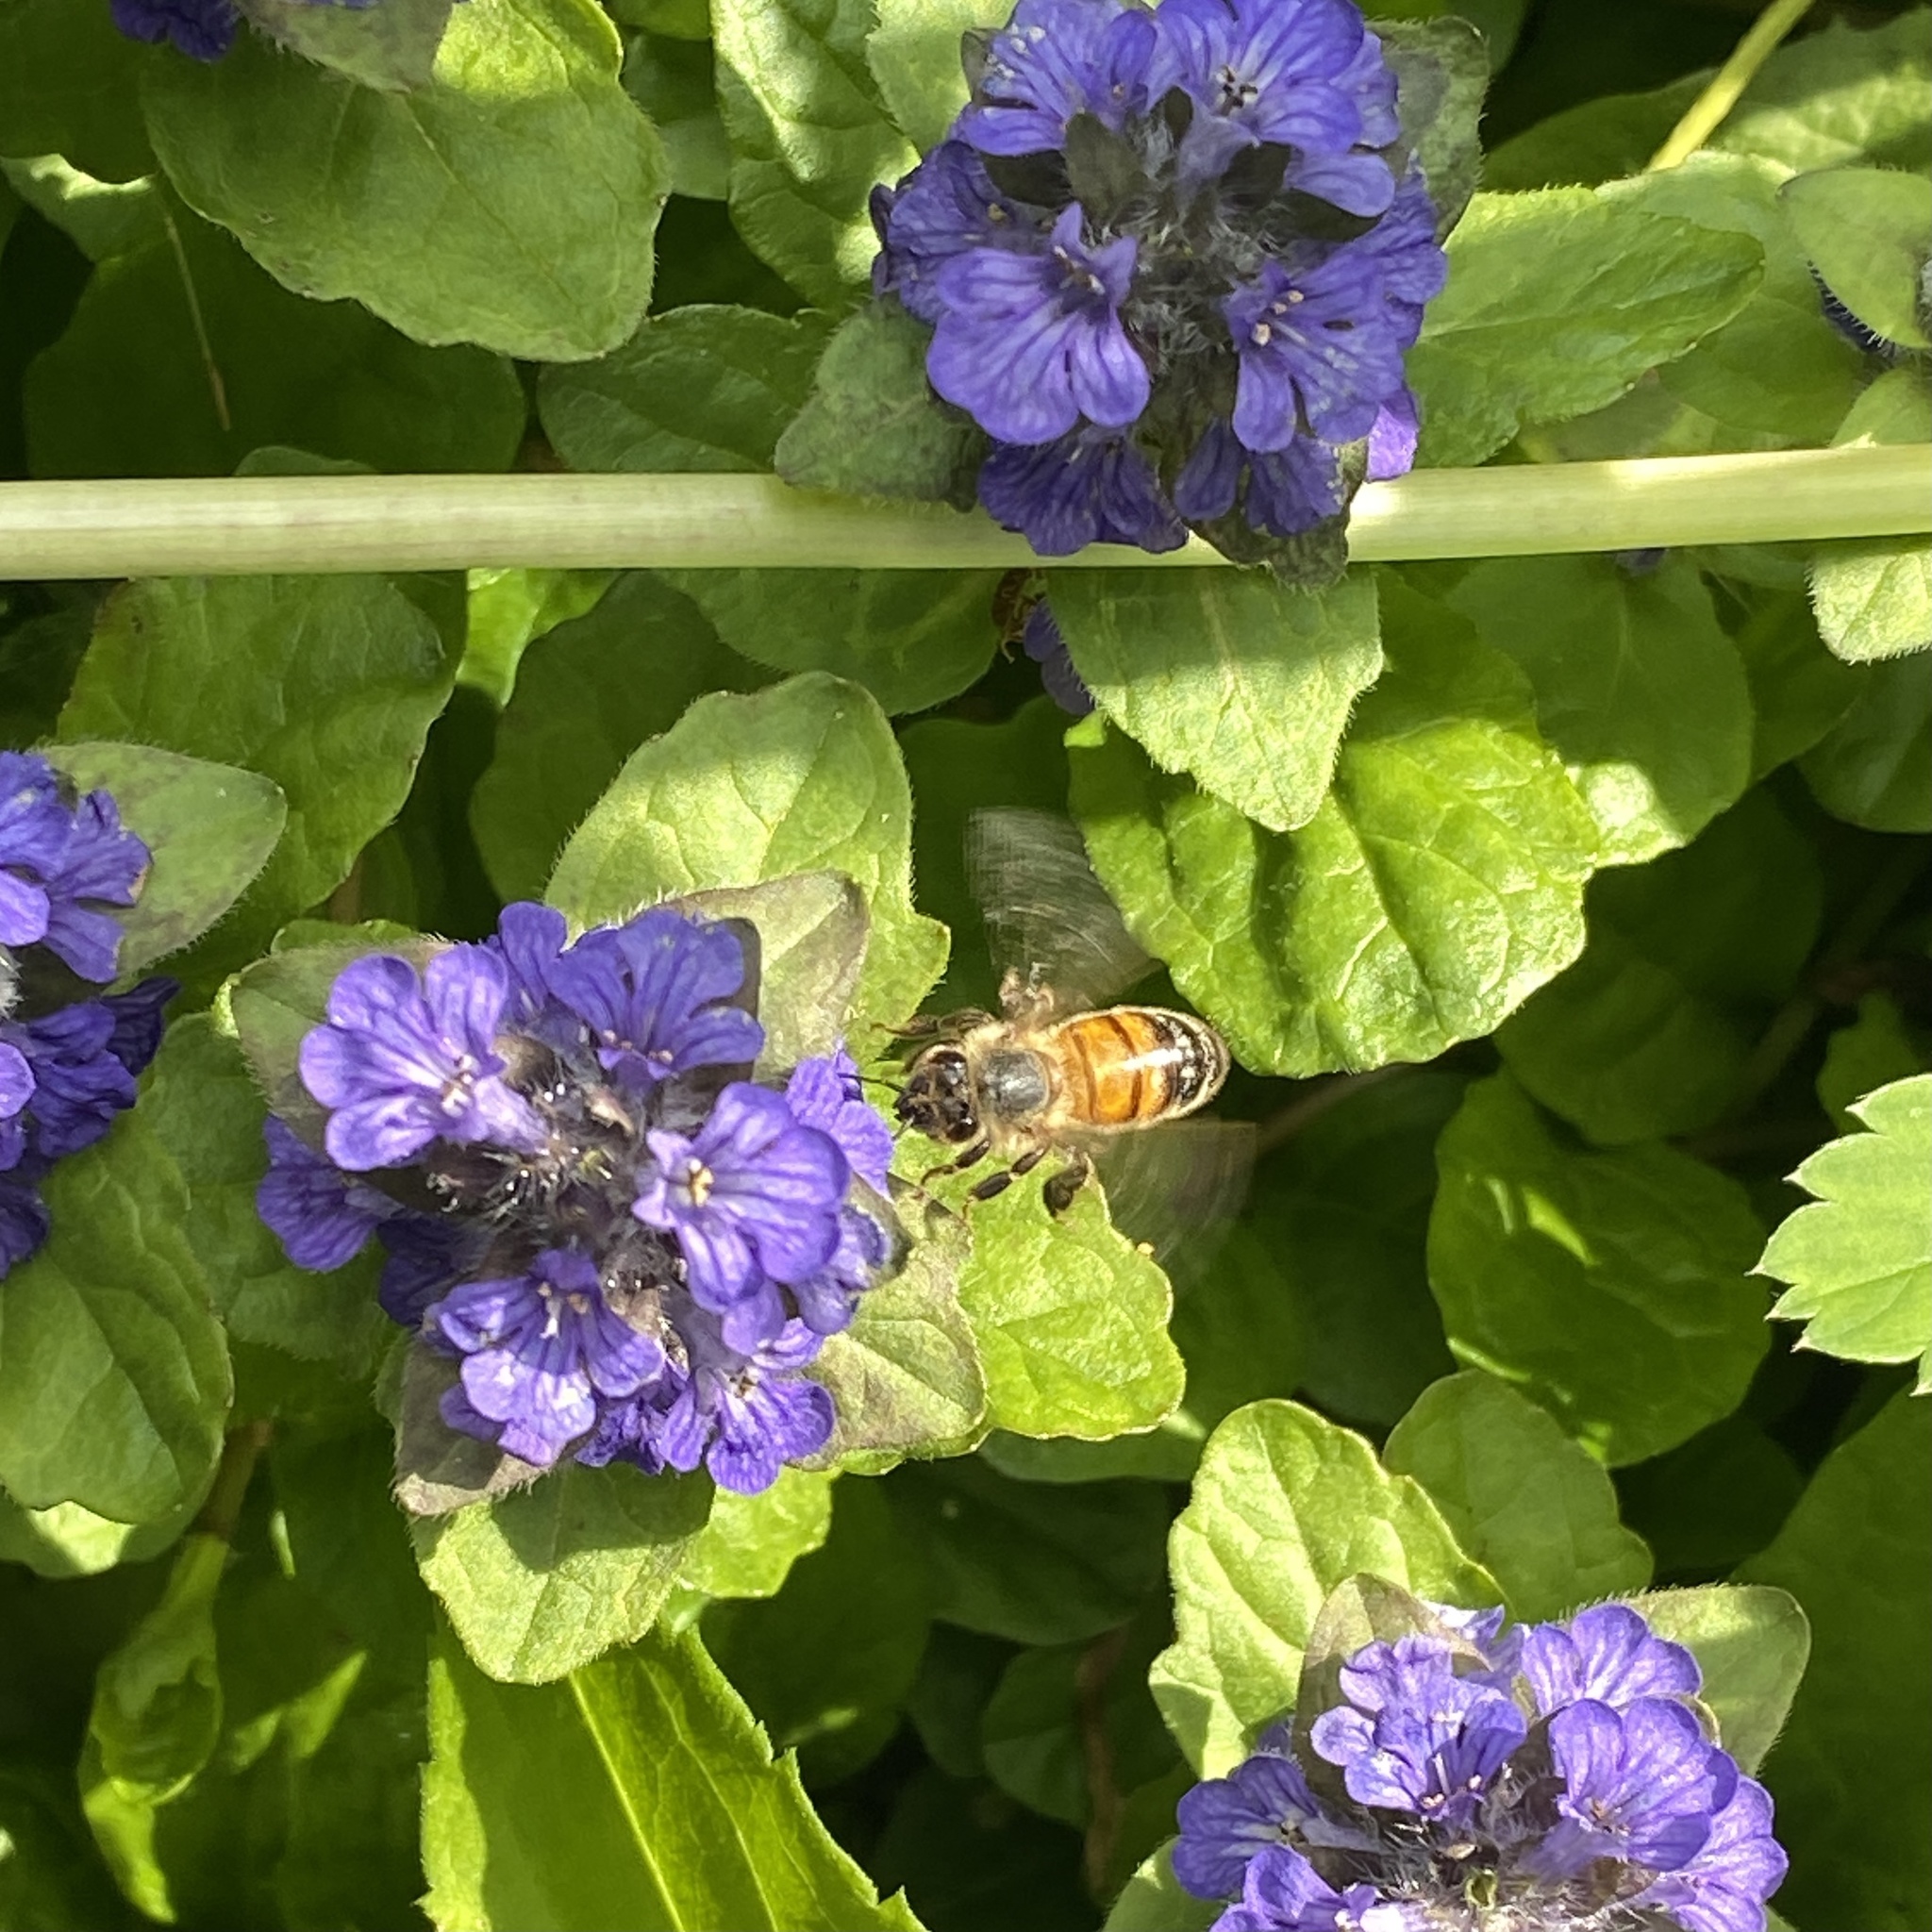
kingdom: Animalia
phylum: Arthropoda
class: Insecta
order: Hymenoptera
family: Apidae
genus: Apis
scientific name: Apis mellifera
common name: Honey bee
